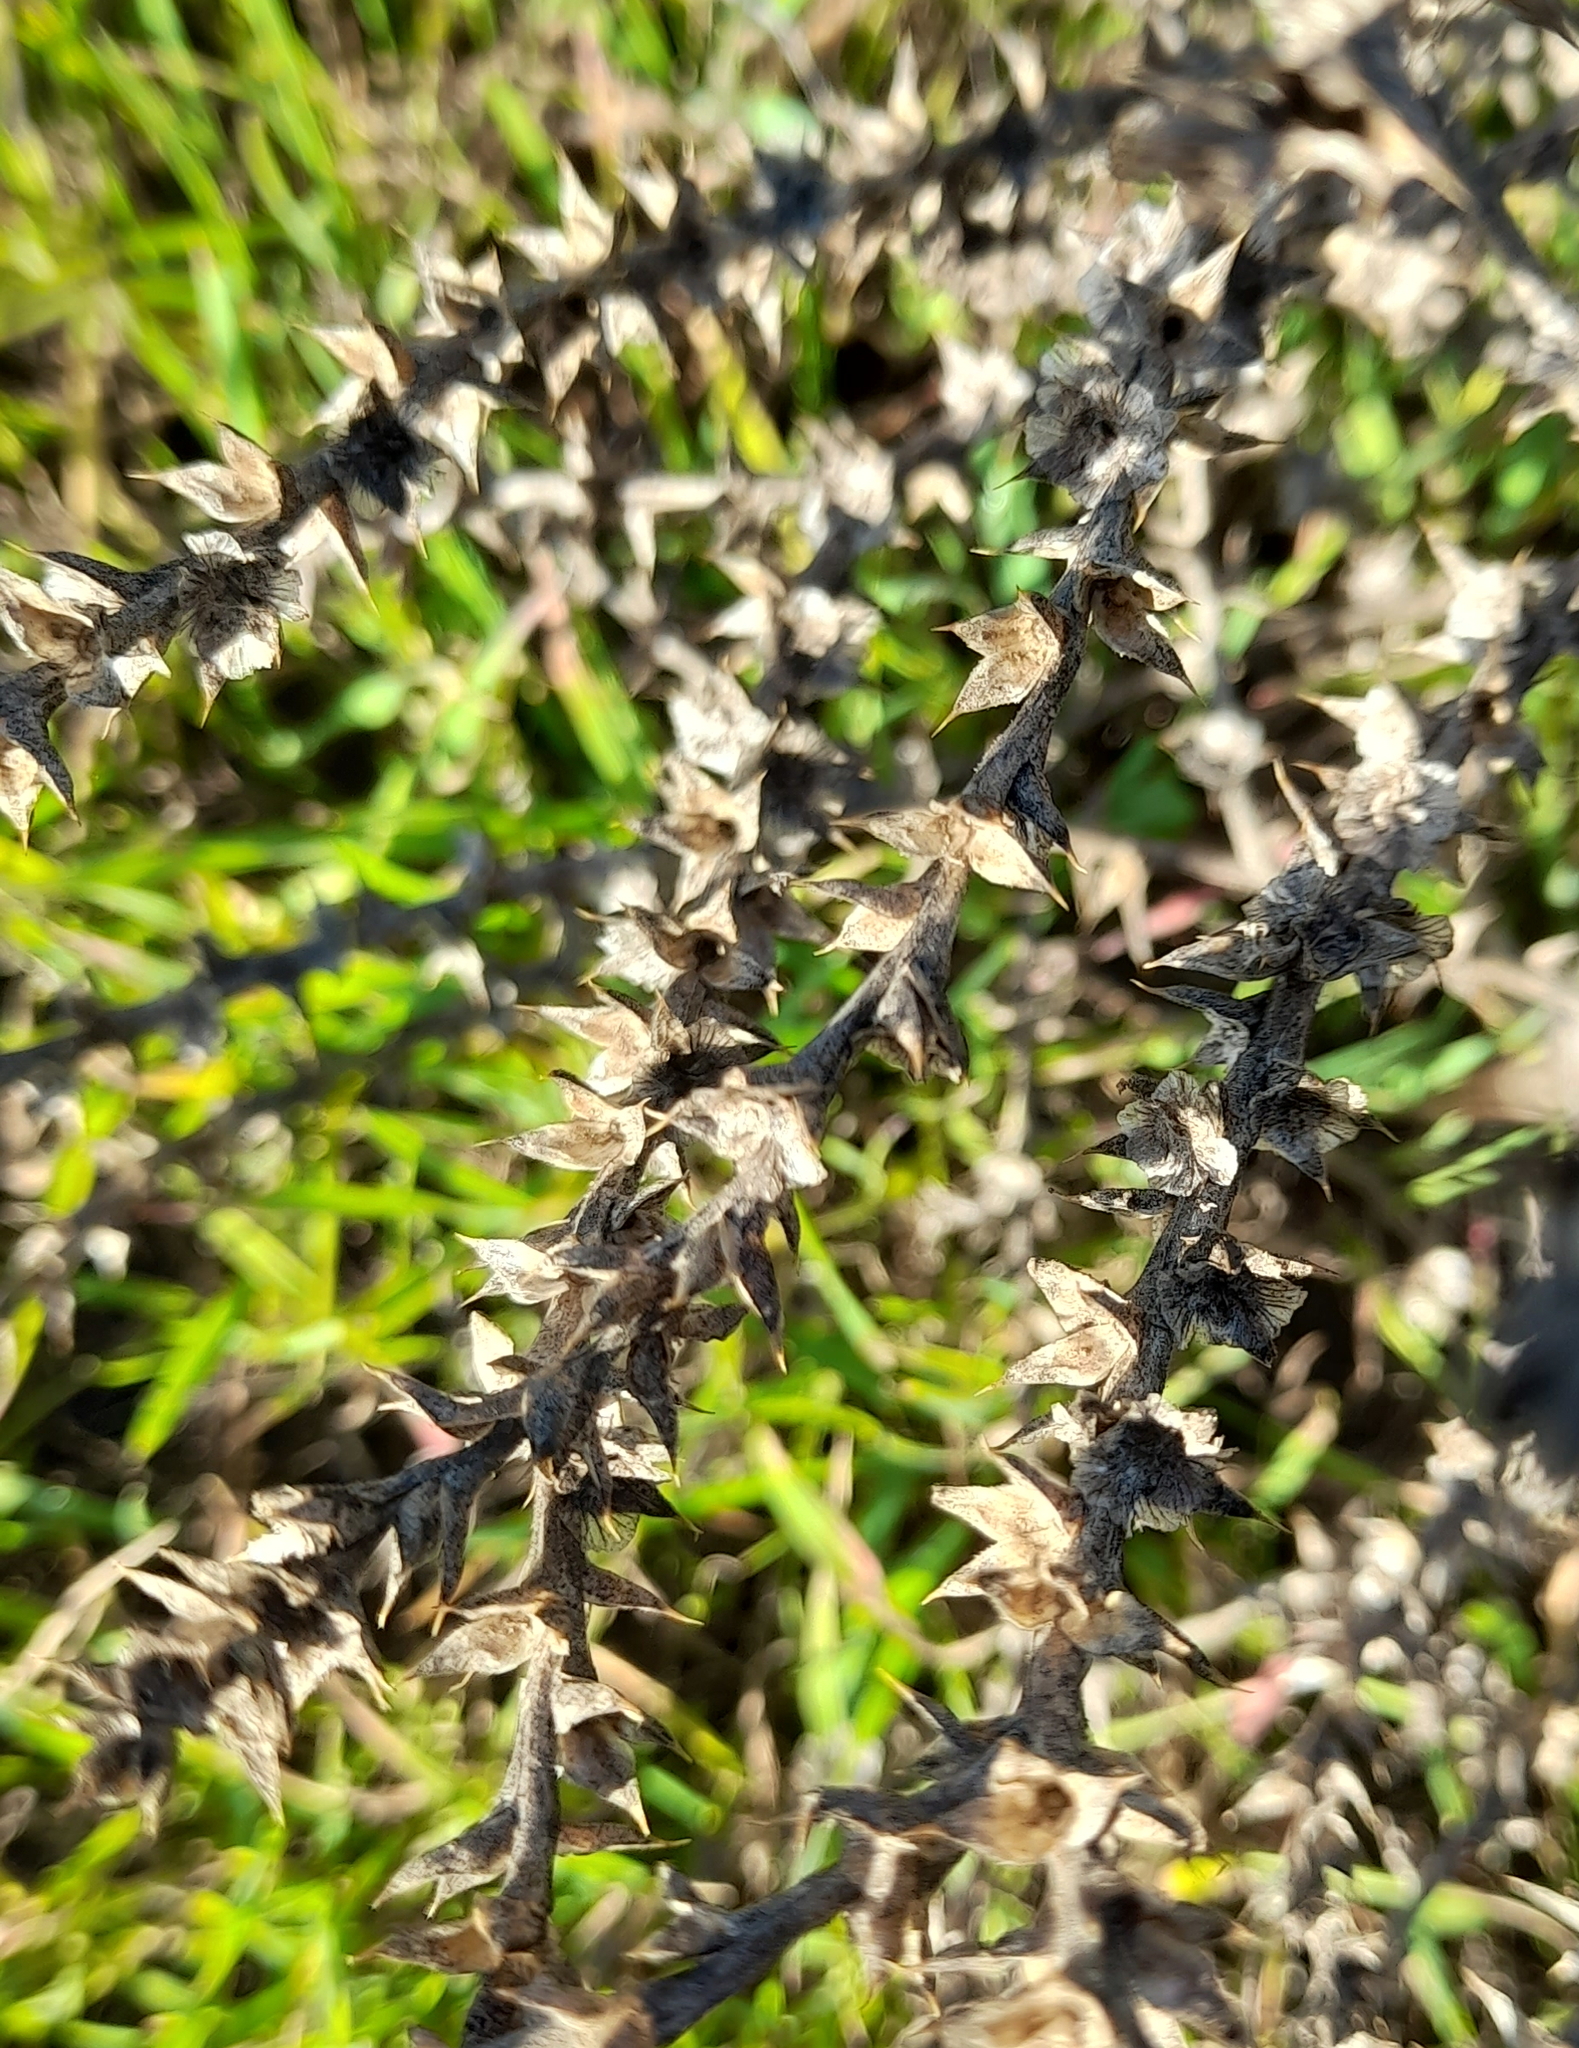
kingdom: Plantae
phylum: Tracheophyta
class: Magnoliopsida
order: Caryophyllales
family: Amaranthaceae
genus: Salsola
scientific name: Salsola tragus
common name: Prickly russian thistle
